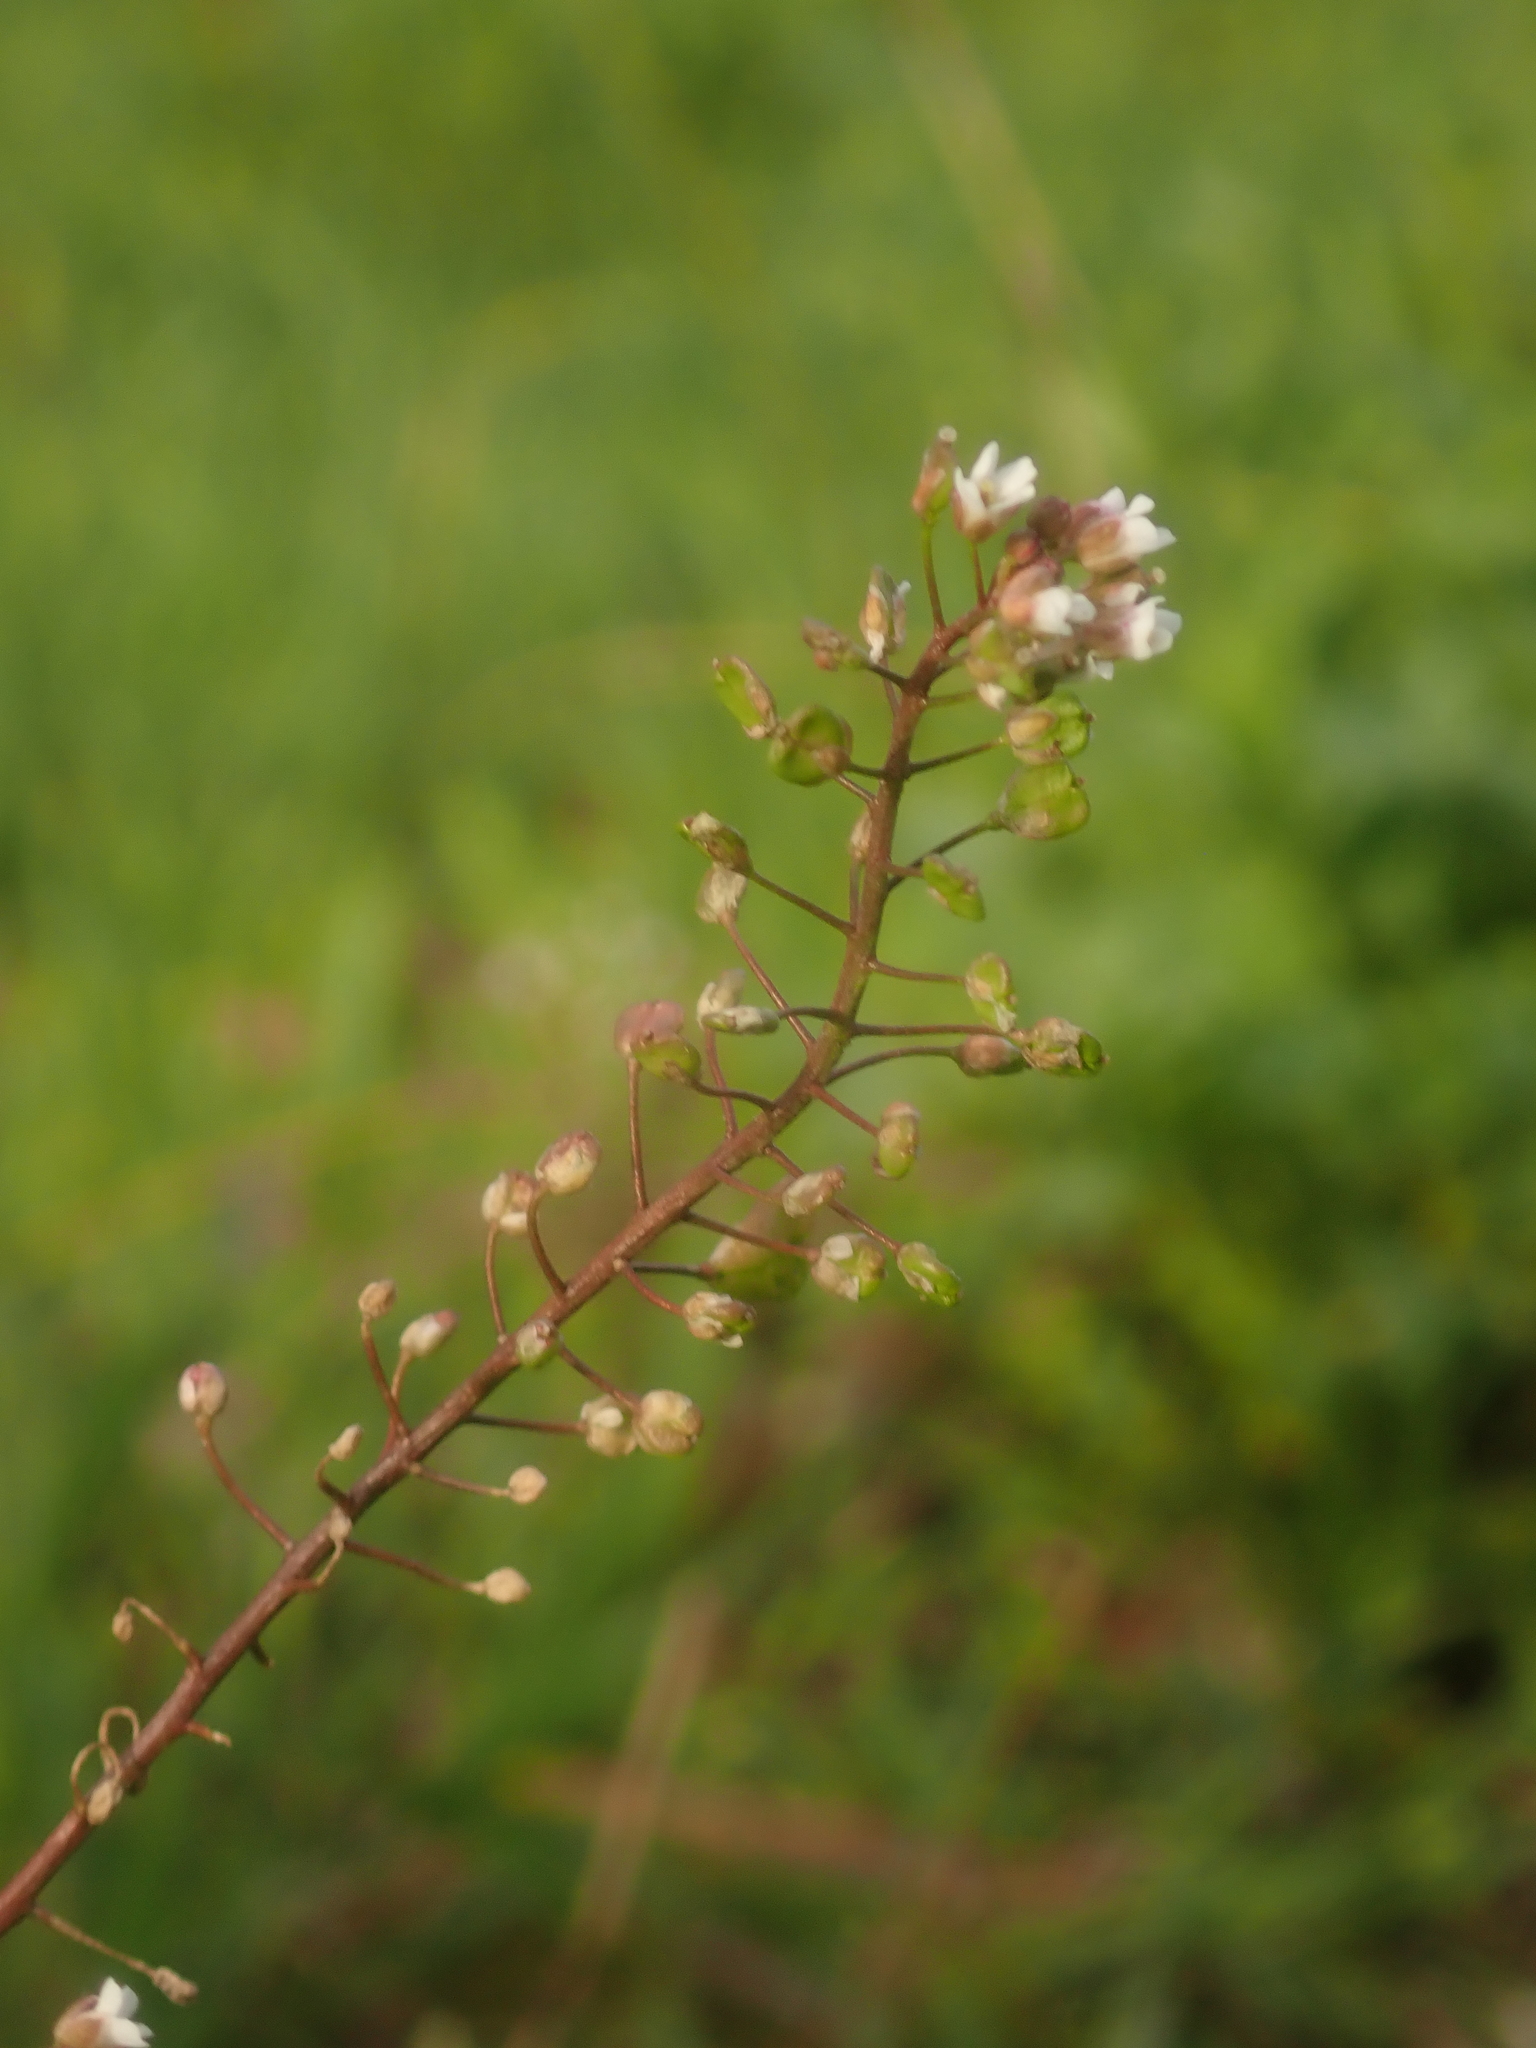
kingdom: Plantae
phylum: Tracheophyta
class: Magnoliopsida
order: Brassicales
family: Brassicaceae
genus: Capsella
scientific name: Capsella bursa-pastoris
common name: Shepherd's purse
